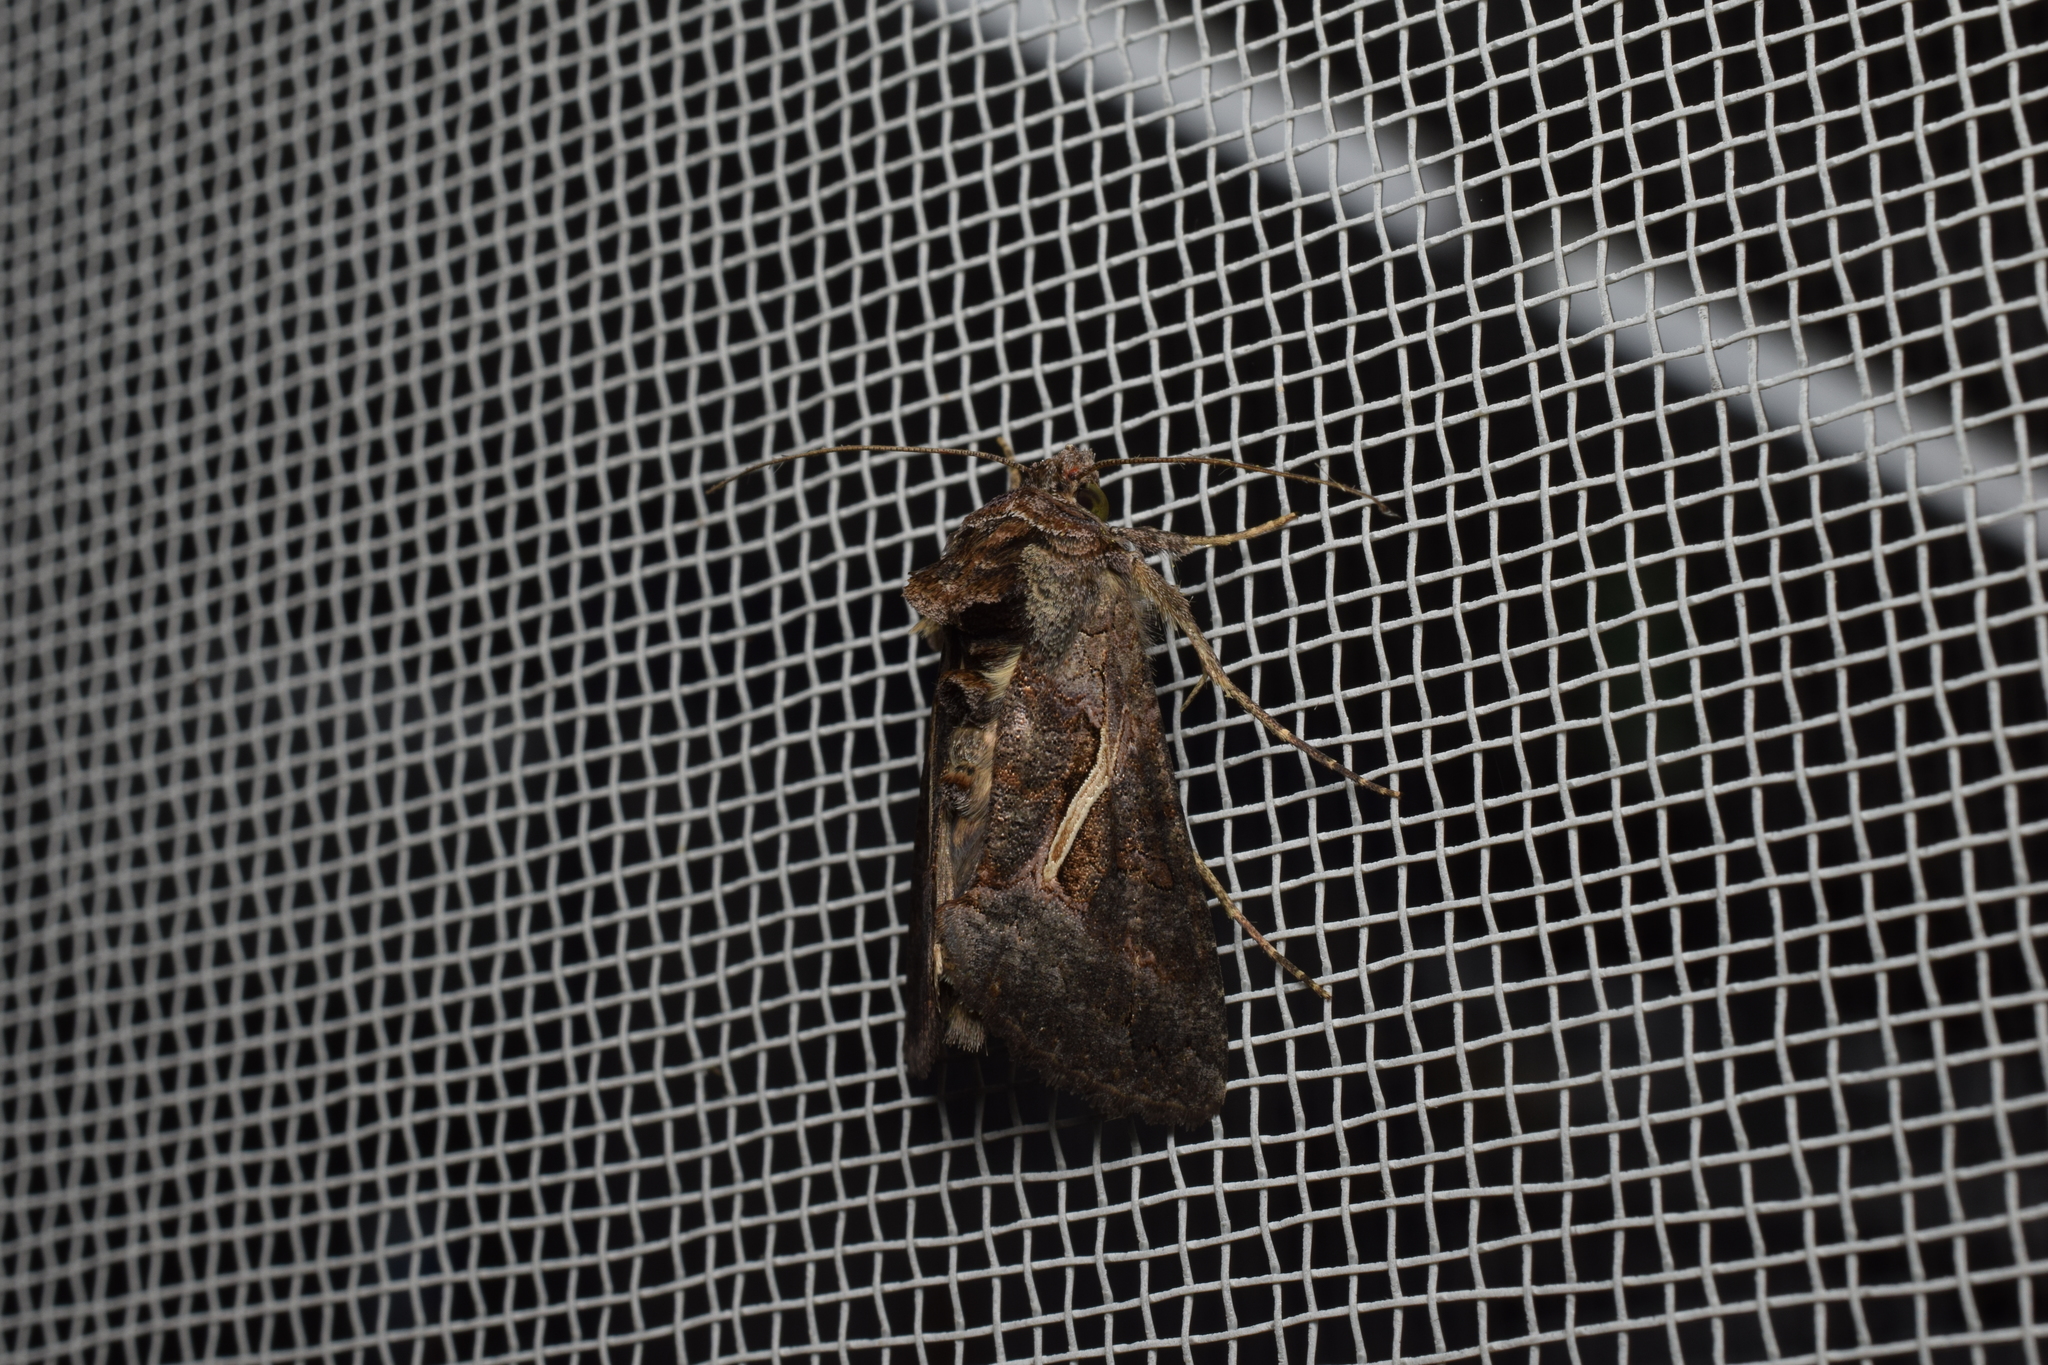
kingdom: Animalia
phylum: Arthropoda
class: Insecta
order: Lepidoptera
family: Noctuidae
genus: Ctenoplusia
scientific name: Ctenoplusia albostriata
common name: Moth
